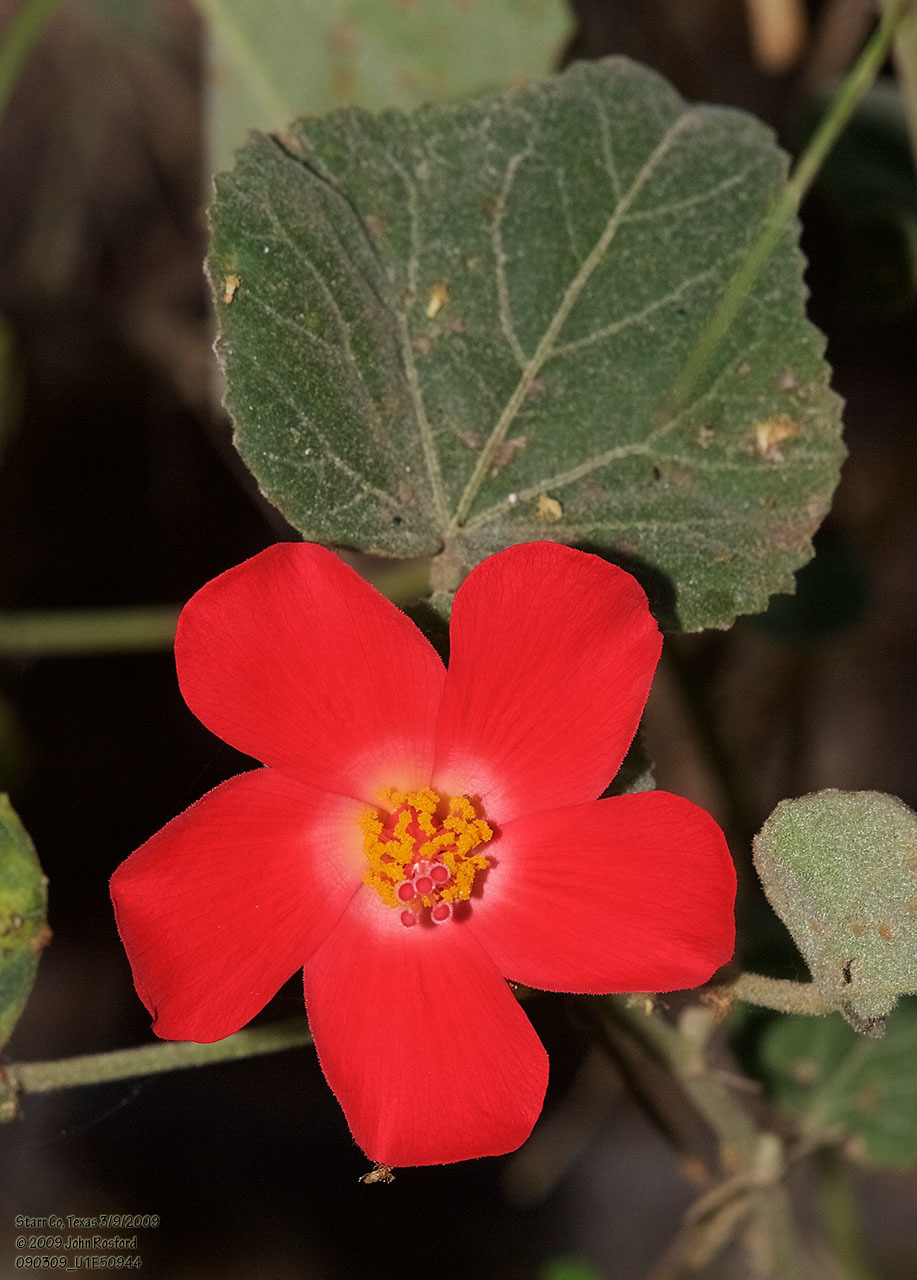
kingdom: Plantae
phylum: Tracheophyta
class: Magnoliopsida
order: Malvales
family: Malvaceae
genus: Hibiscus
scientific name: Hibiscus martianus
